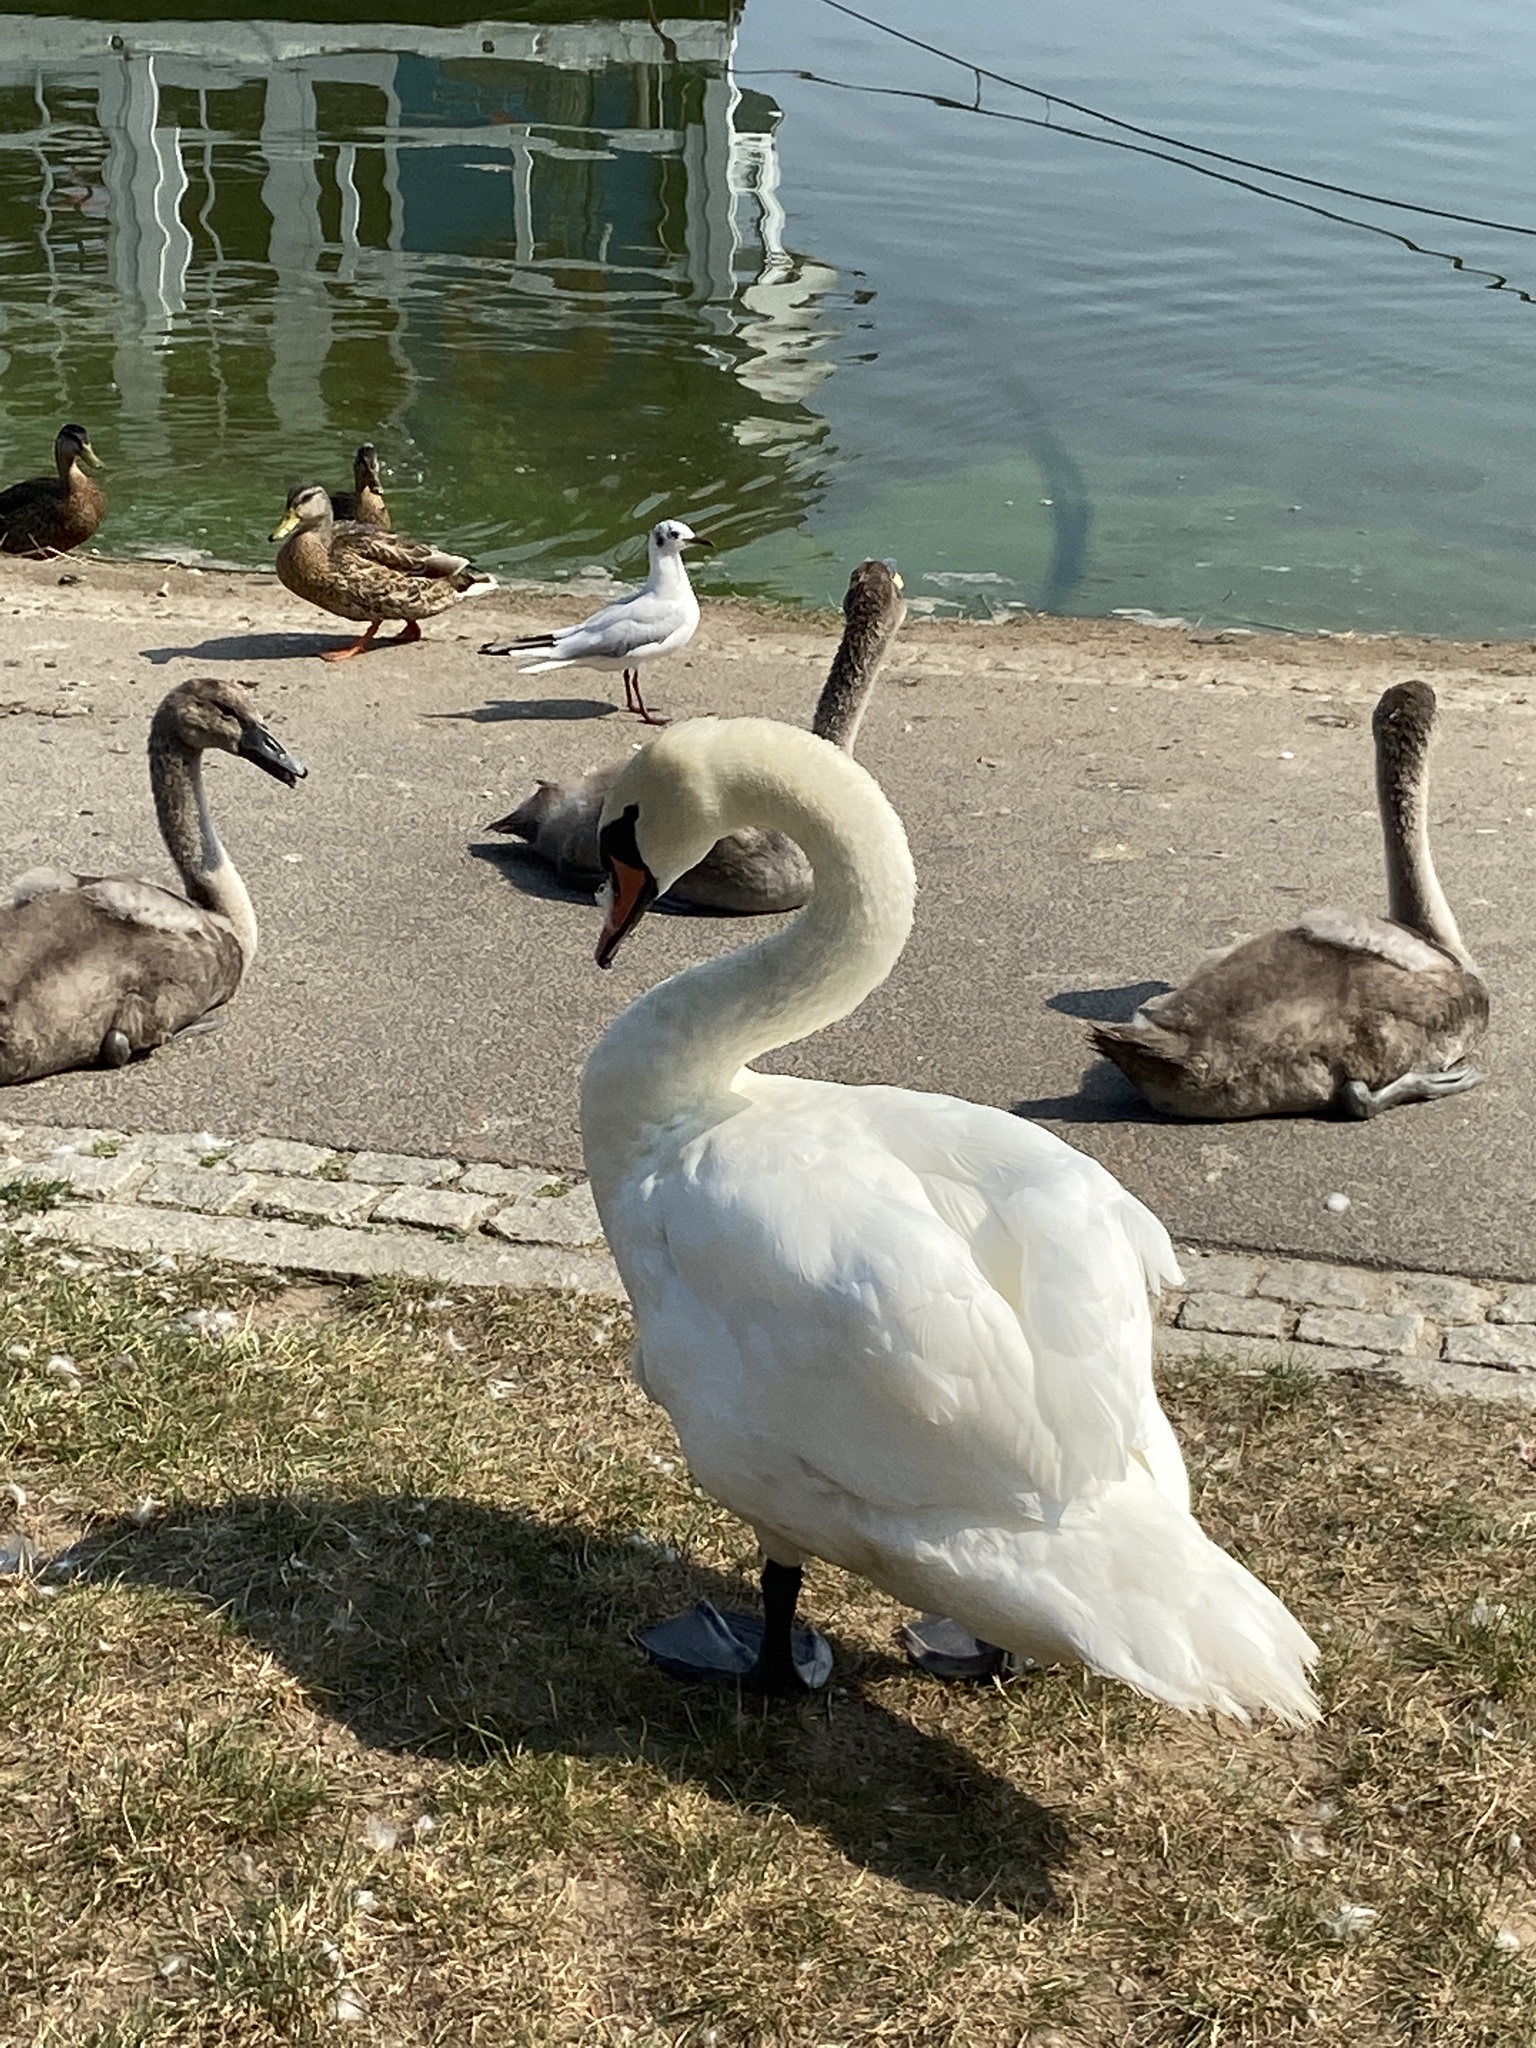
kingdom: Animalia
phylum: Chordata
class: Aves
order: Anseriformes
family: Anatidae
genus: Cygnus
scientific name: Cygnus olor
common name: Mute swan
